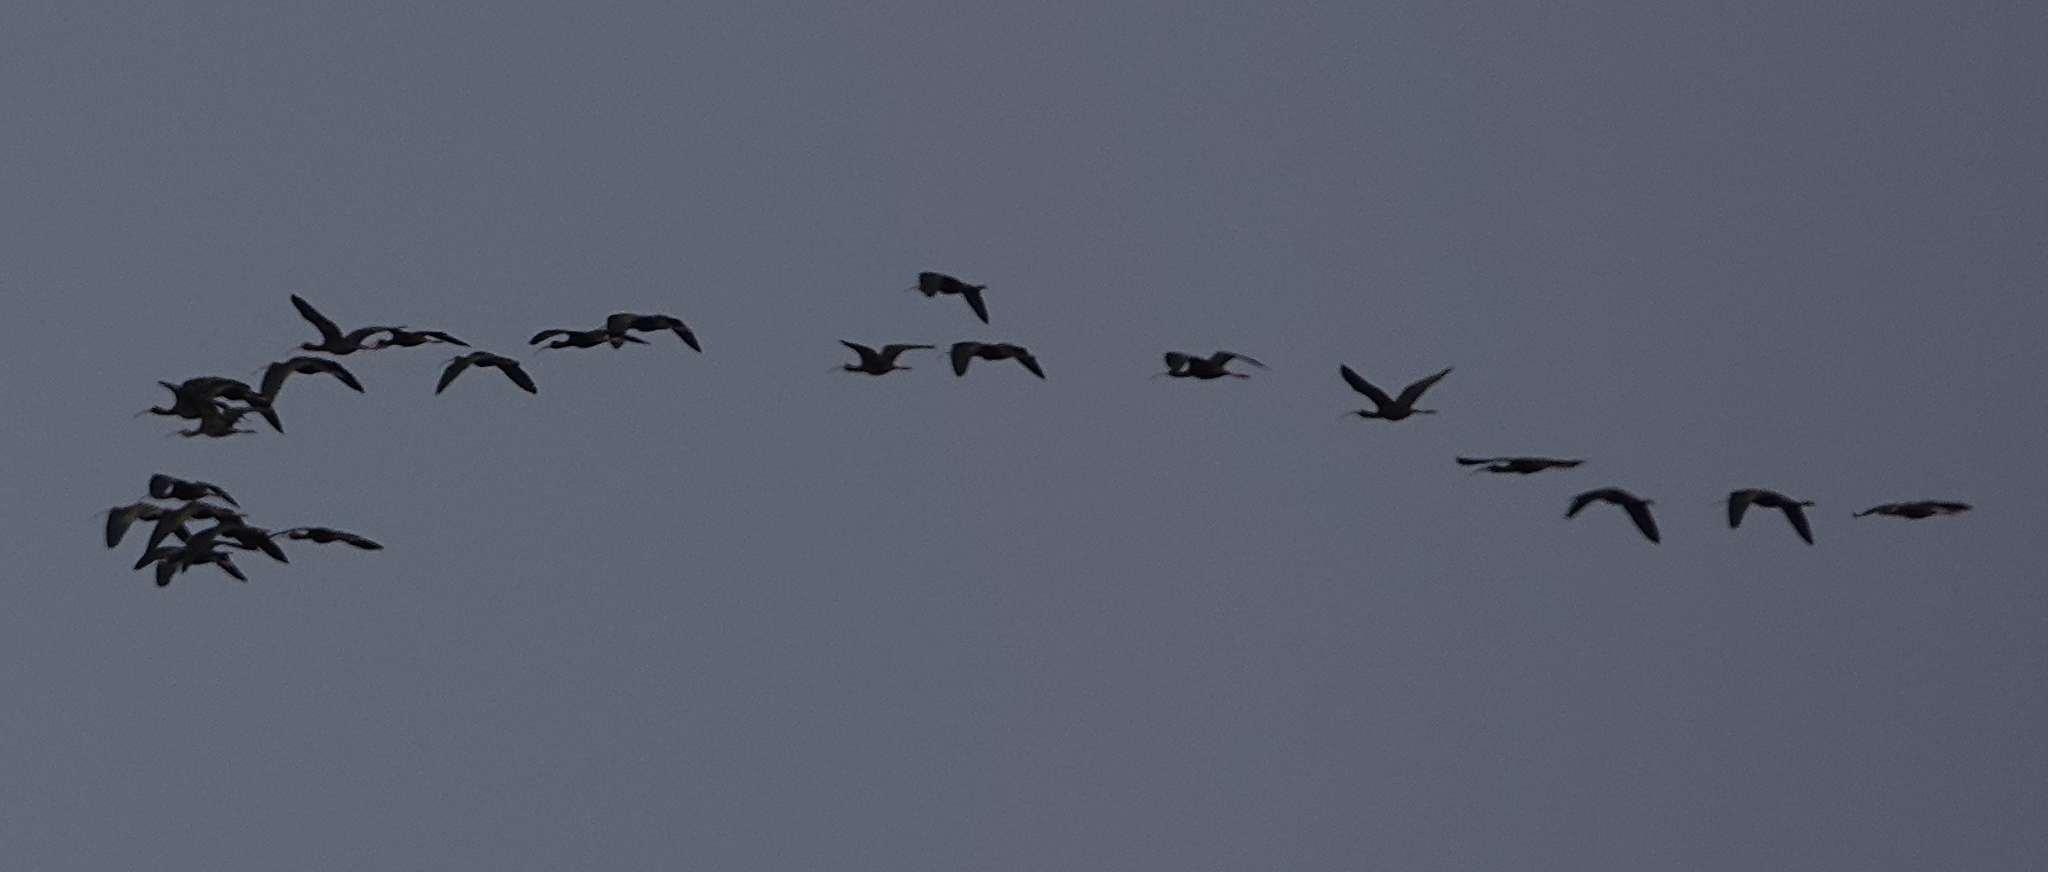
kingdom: Animalia
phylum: Chordata
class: Aves
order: Pelecaniformes
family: Threskiornithidae
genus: Plegadis
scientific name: Plegadis chihi
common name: White-faced ibis
